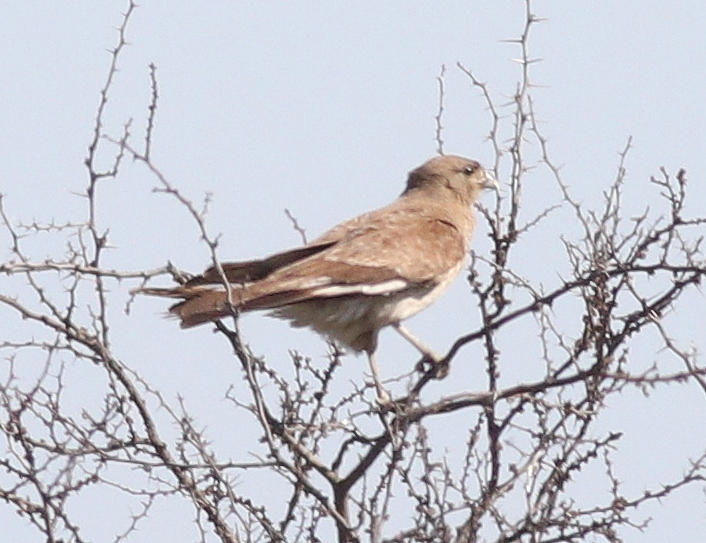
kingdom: Animalia
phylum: Chordata
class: Aves
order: Falconiformes
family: Falconidae
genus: Daptrius
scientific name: Daptrius
